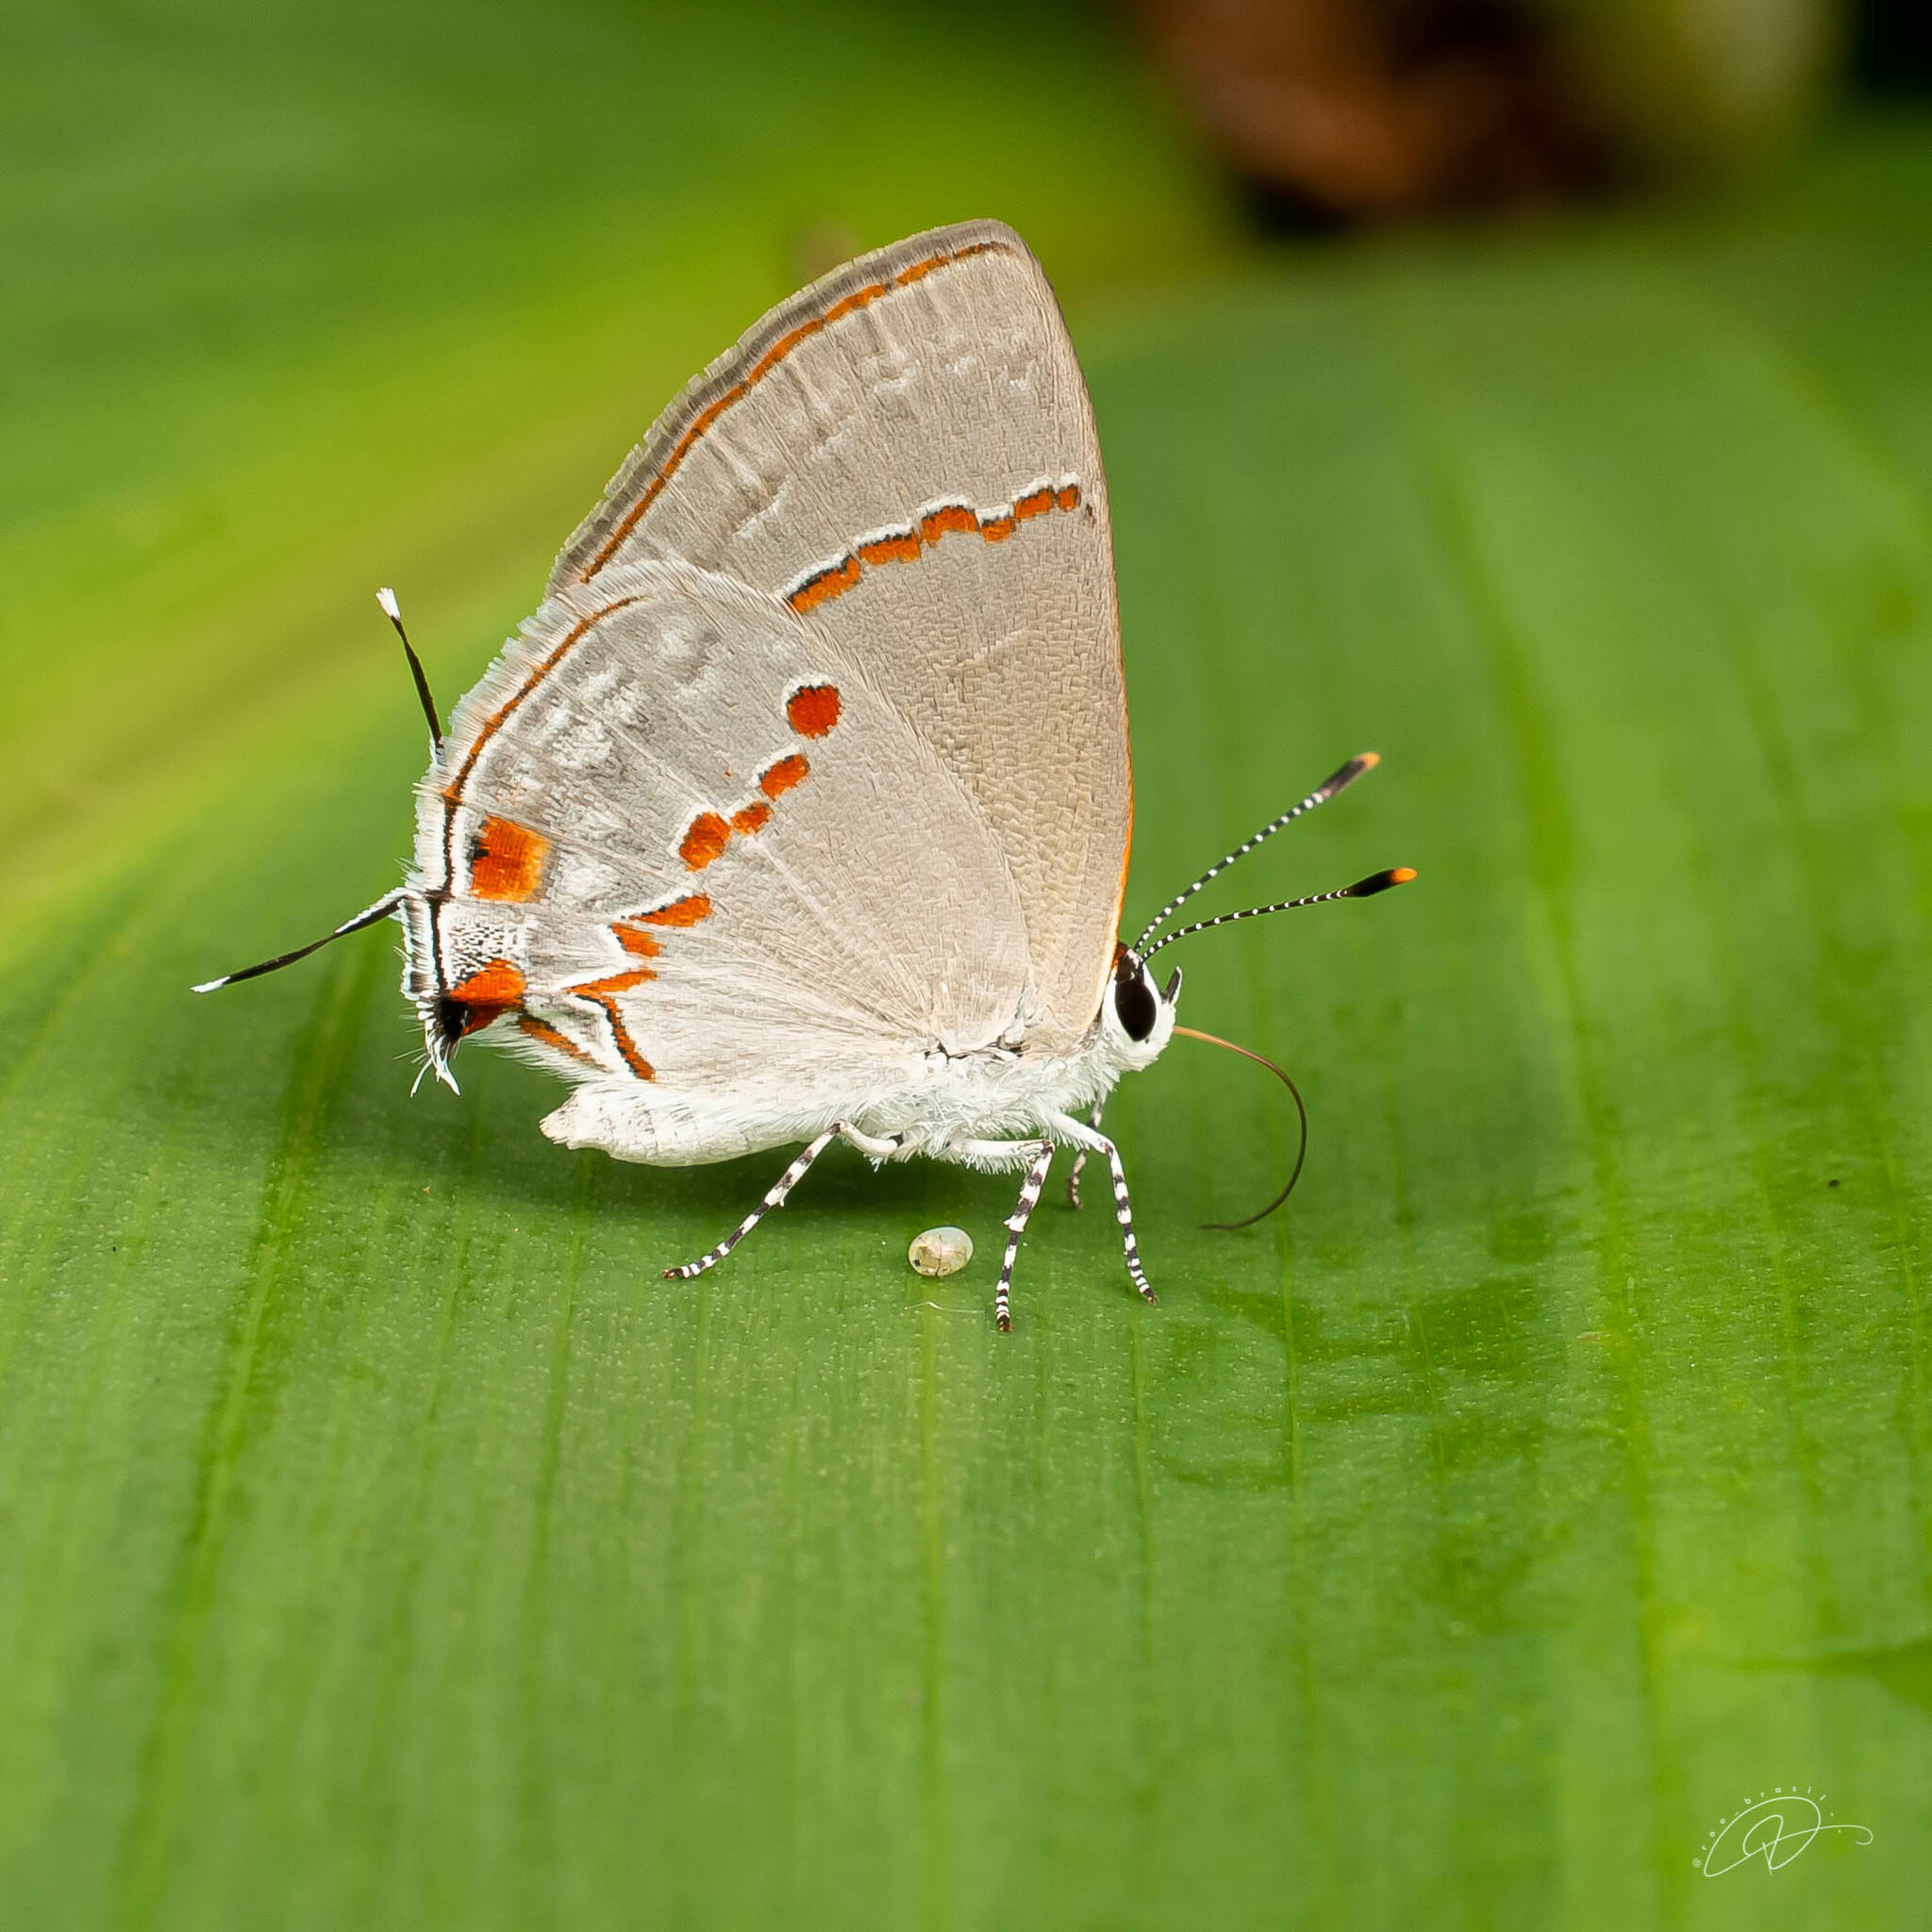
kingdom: Animalia
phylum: Arthropoda
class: Insecta
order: Lepidoptera
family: Lycaenidae
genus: Thecla
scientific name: Thecla azia
